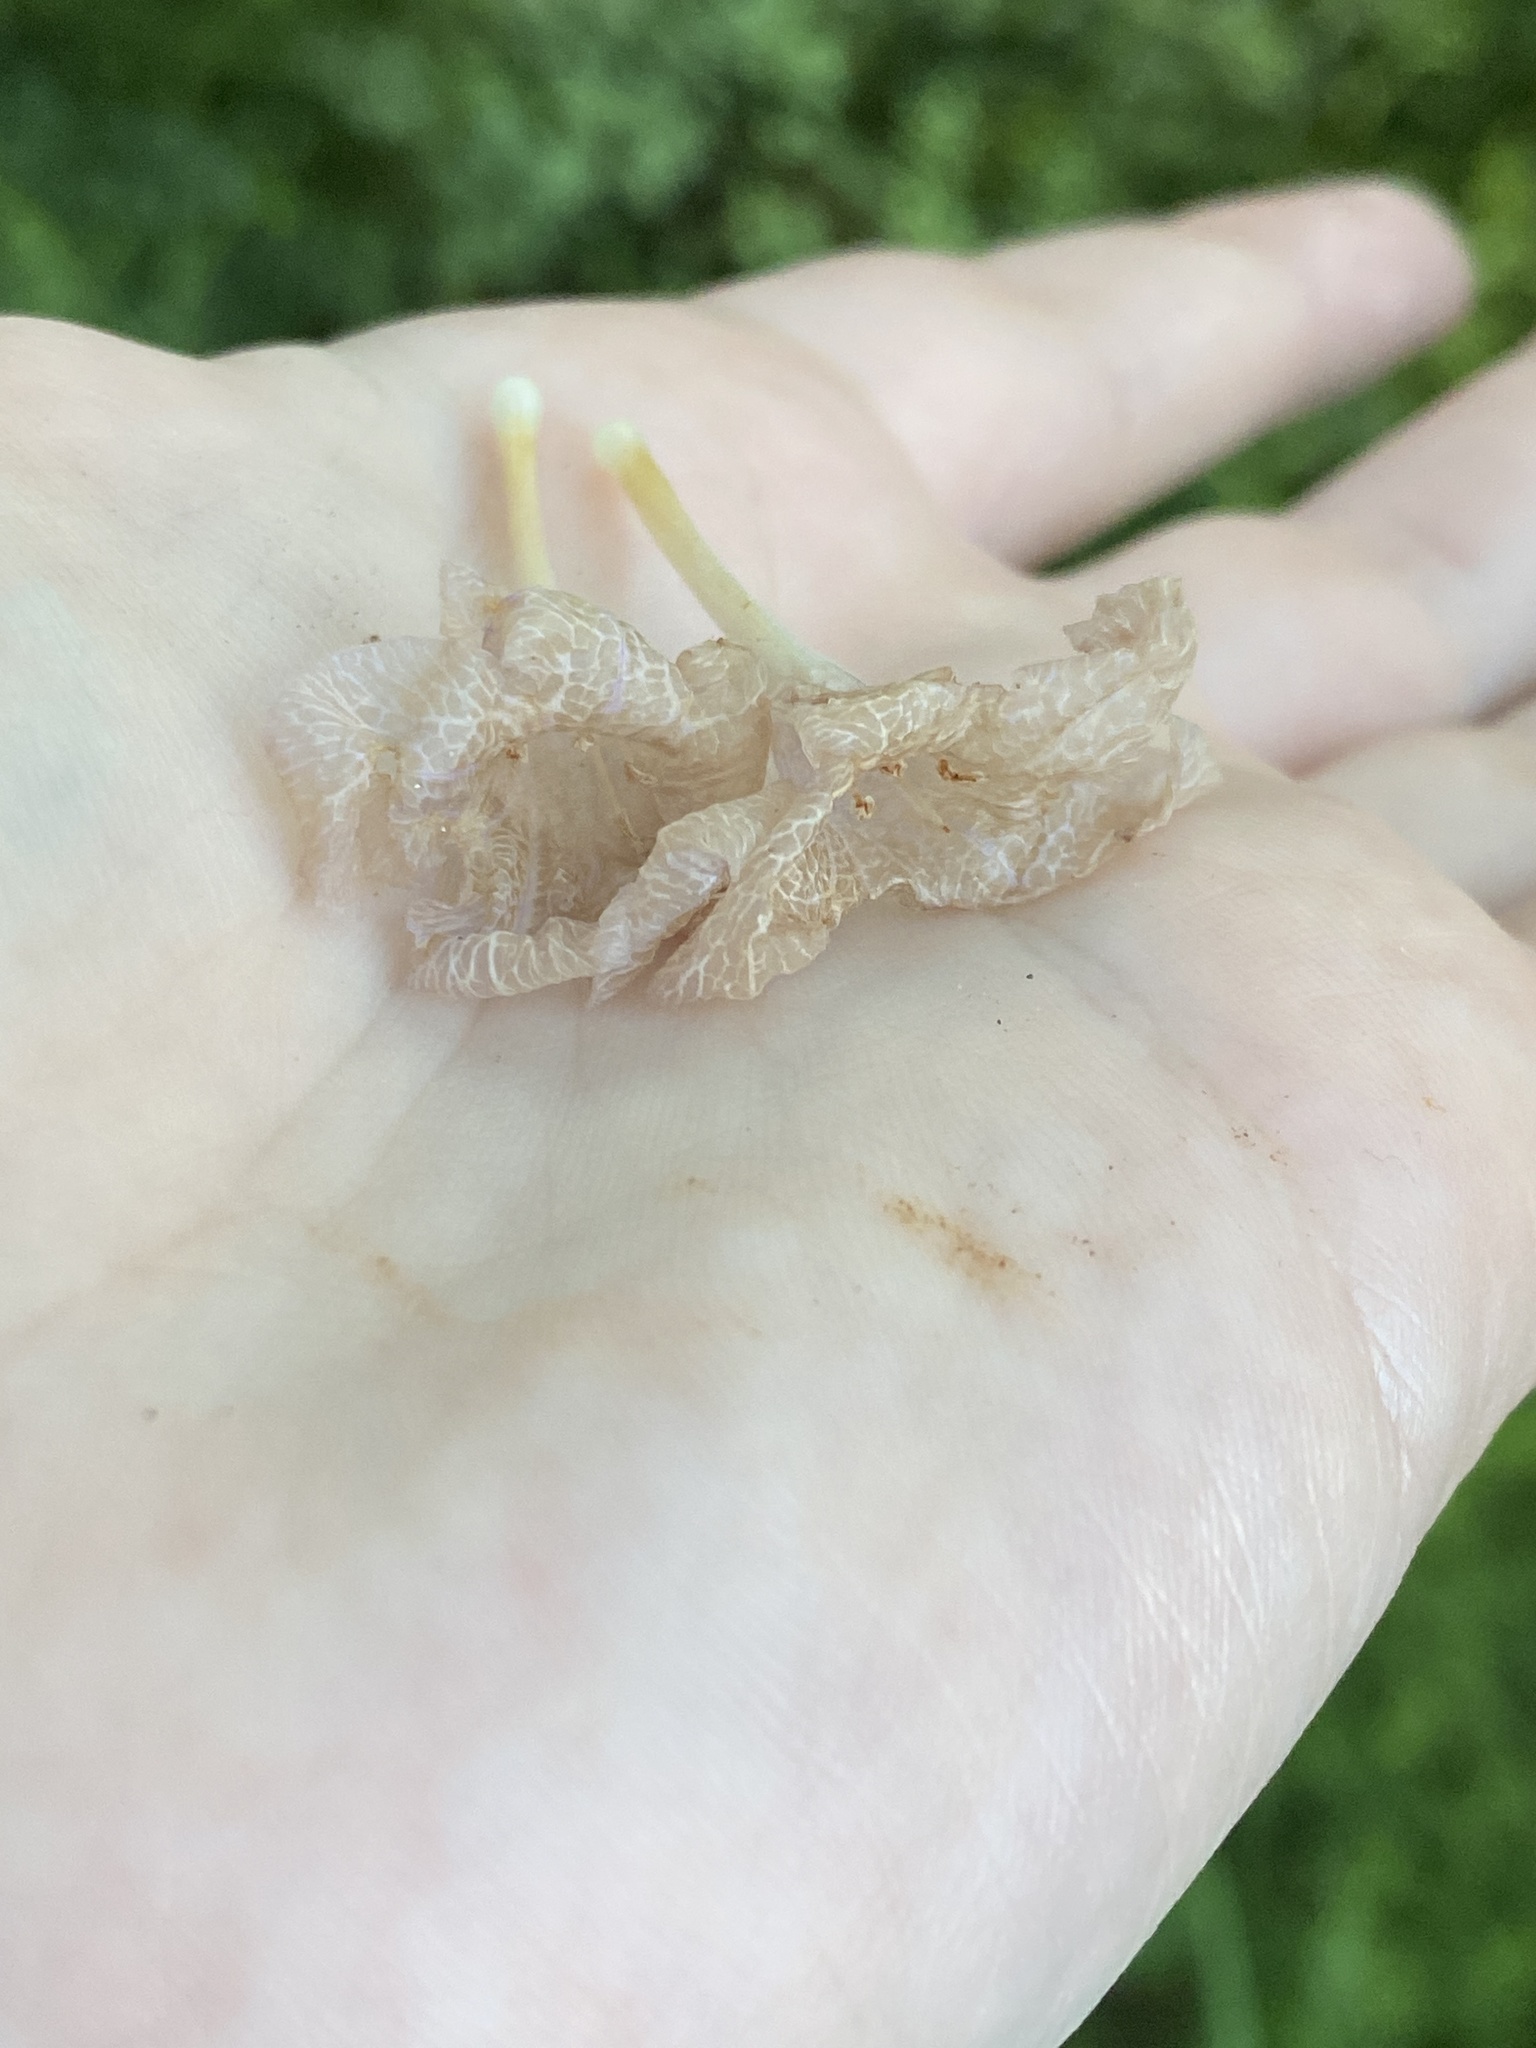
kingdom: Plantae
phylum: Tracheophyta
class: Magnoliopsida
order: Lamiales
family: Acanthaceae
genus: Ruellia
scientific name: Ruellia caroliniensis
